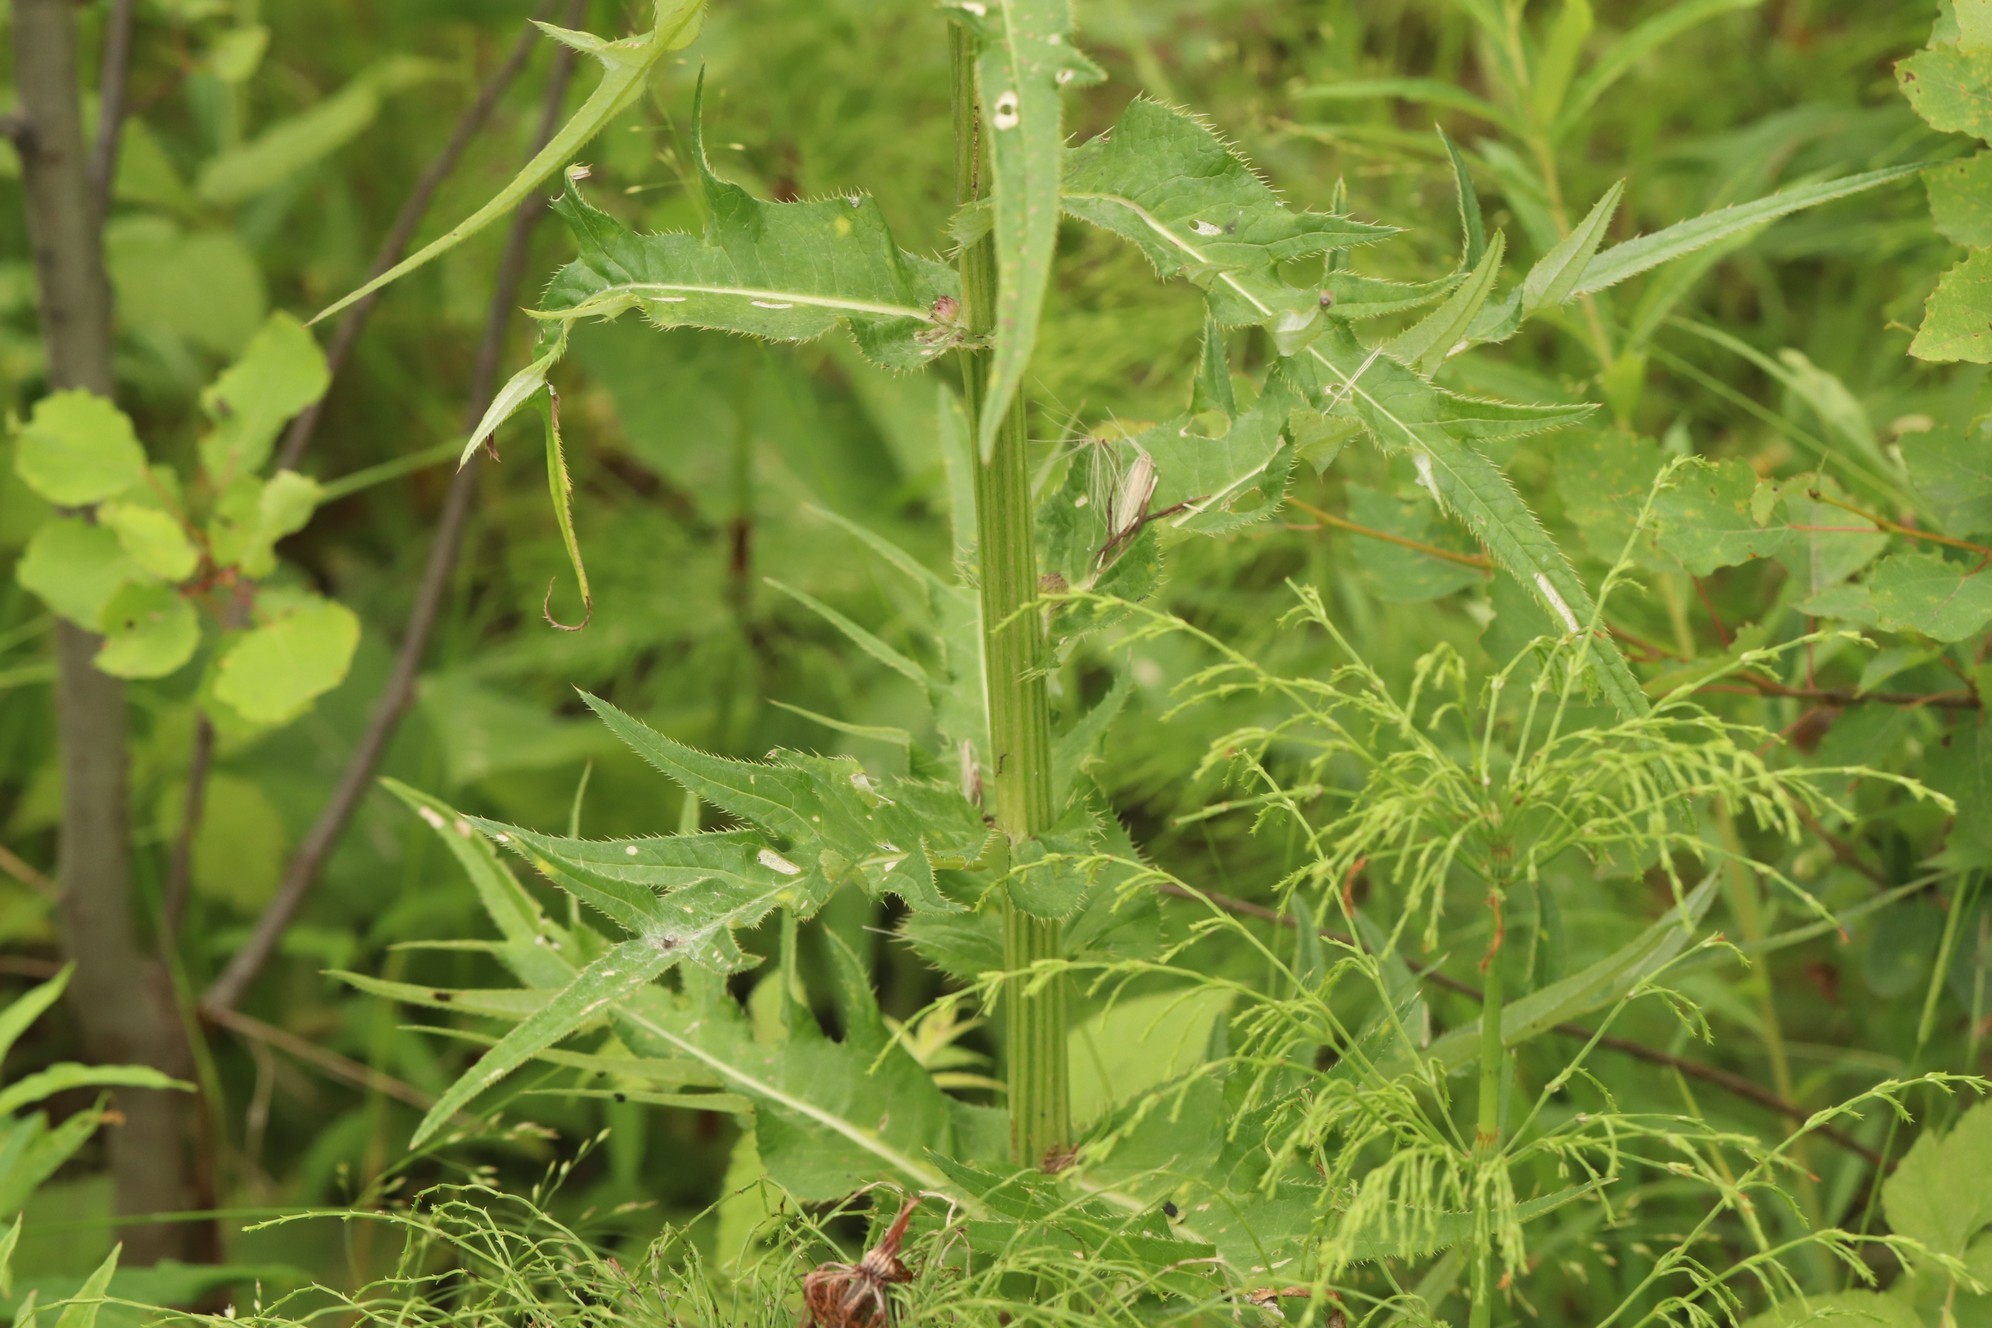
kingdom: Plantae
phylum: Tracheophyta
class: Magnoliopsida
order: Asterales
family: Asteraceae
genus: Cirsium
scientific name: Cirsium heterophyllum
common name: Melancholy thistle
